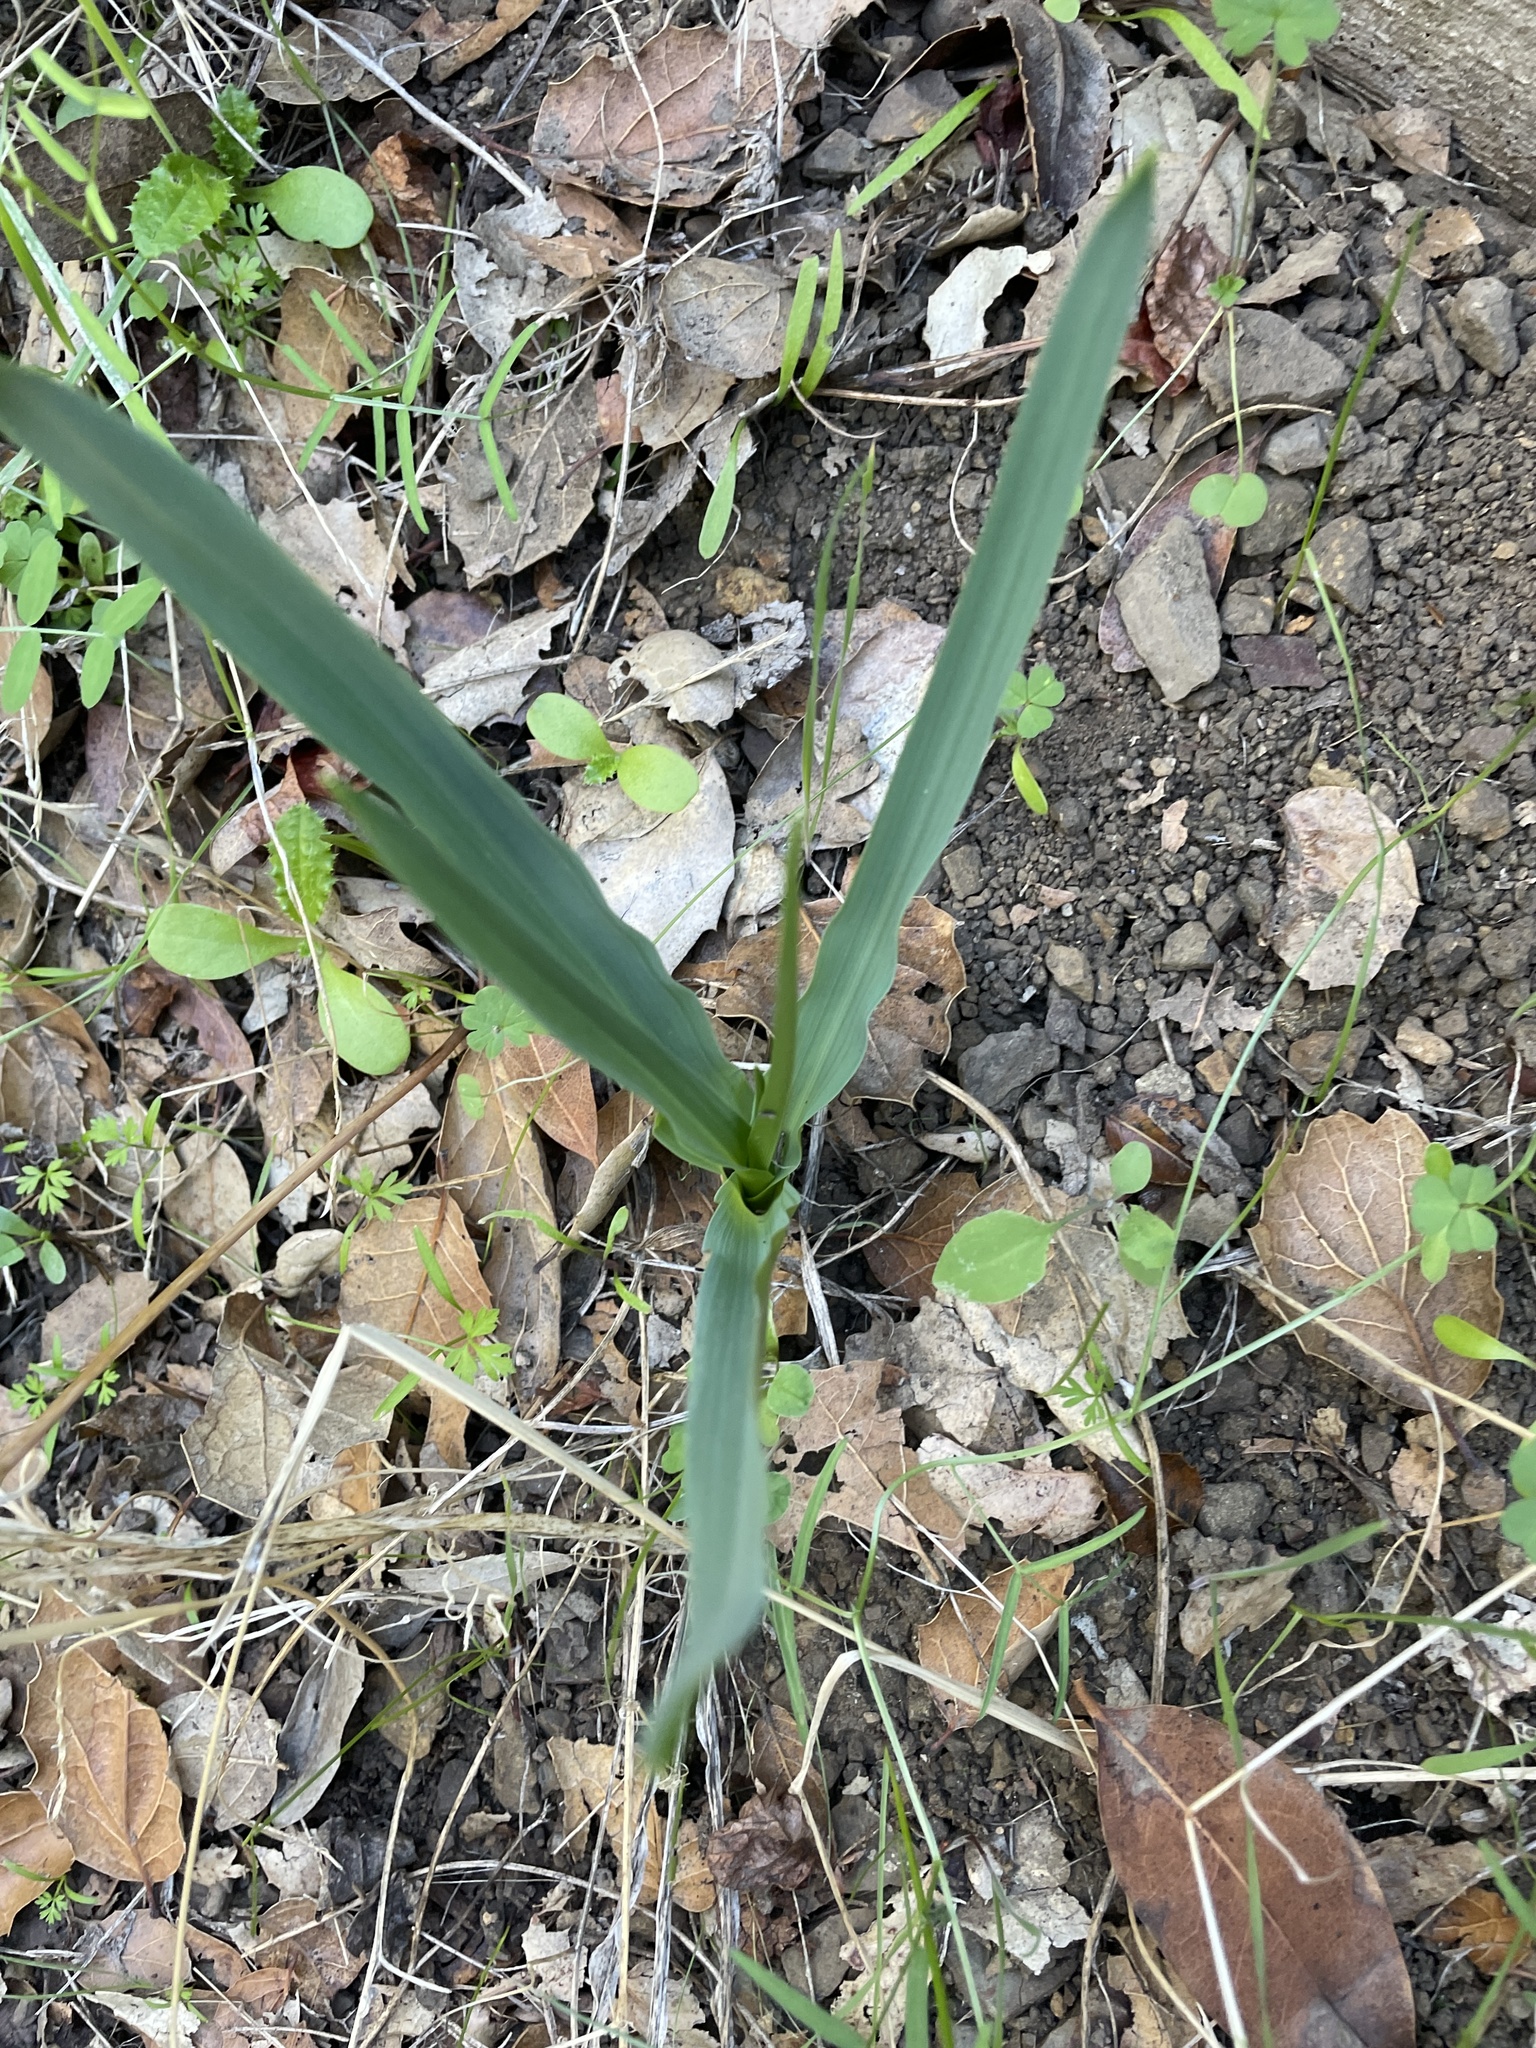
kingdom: Plantae
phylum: Tracheophyta
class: Liliopsida
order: Asparagales
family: Asparagaceae
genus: Chlorogalum
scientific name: Chlorogalum pomeridianum
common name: Amole
